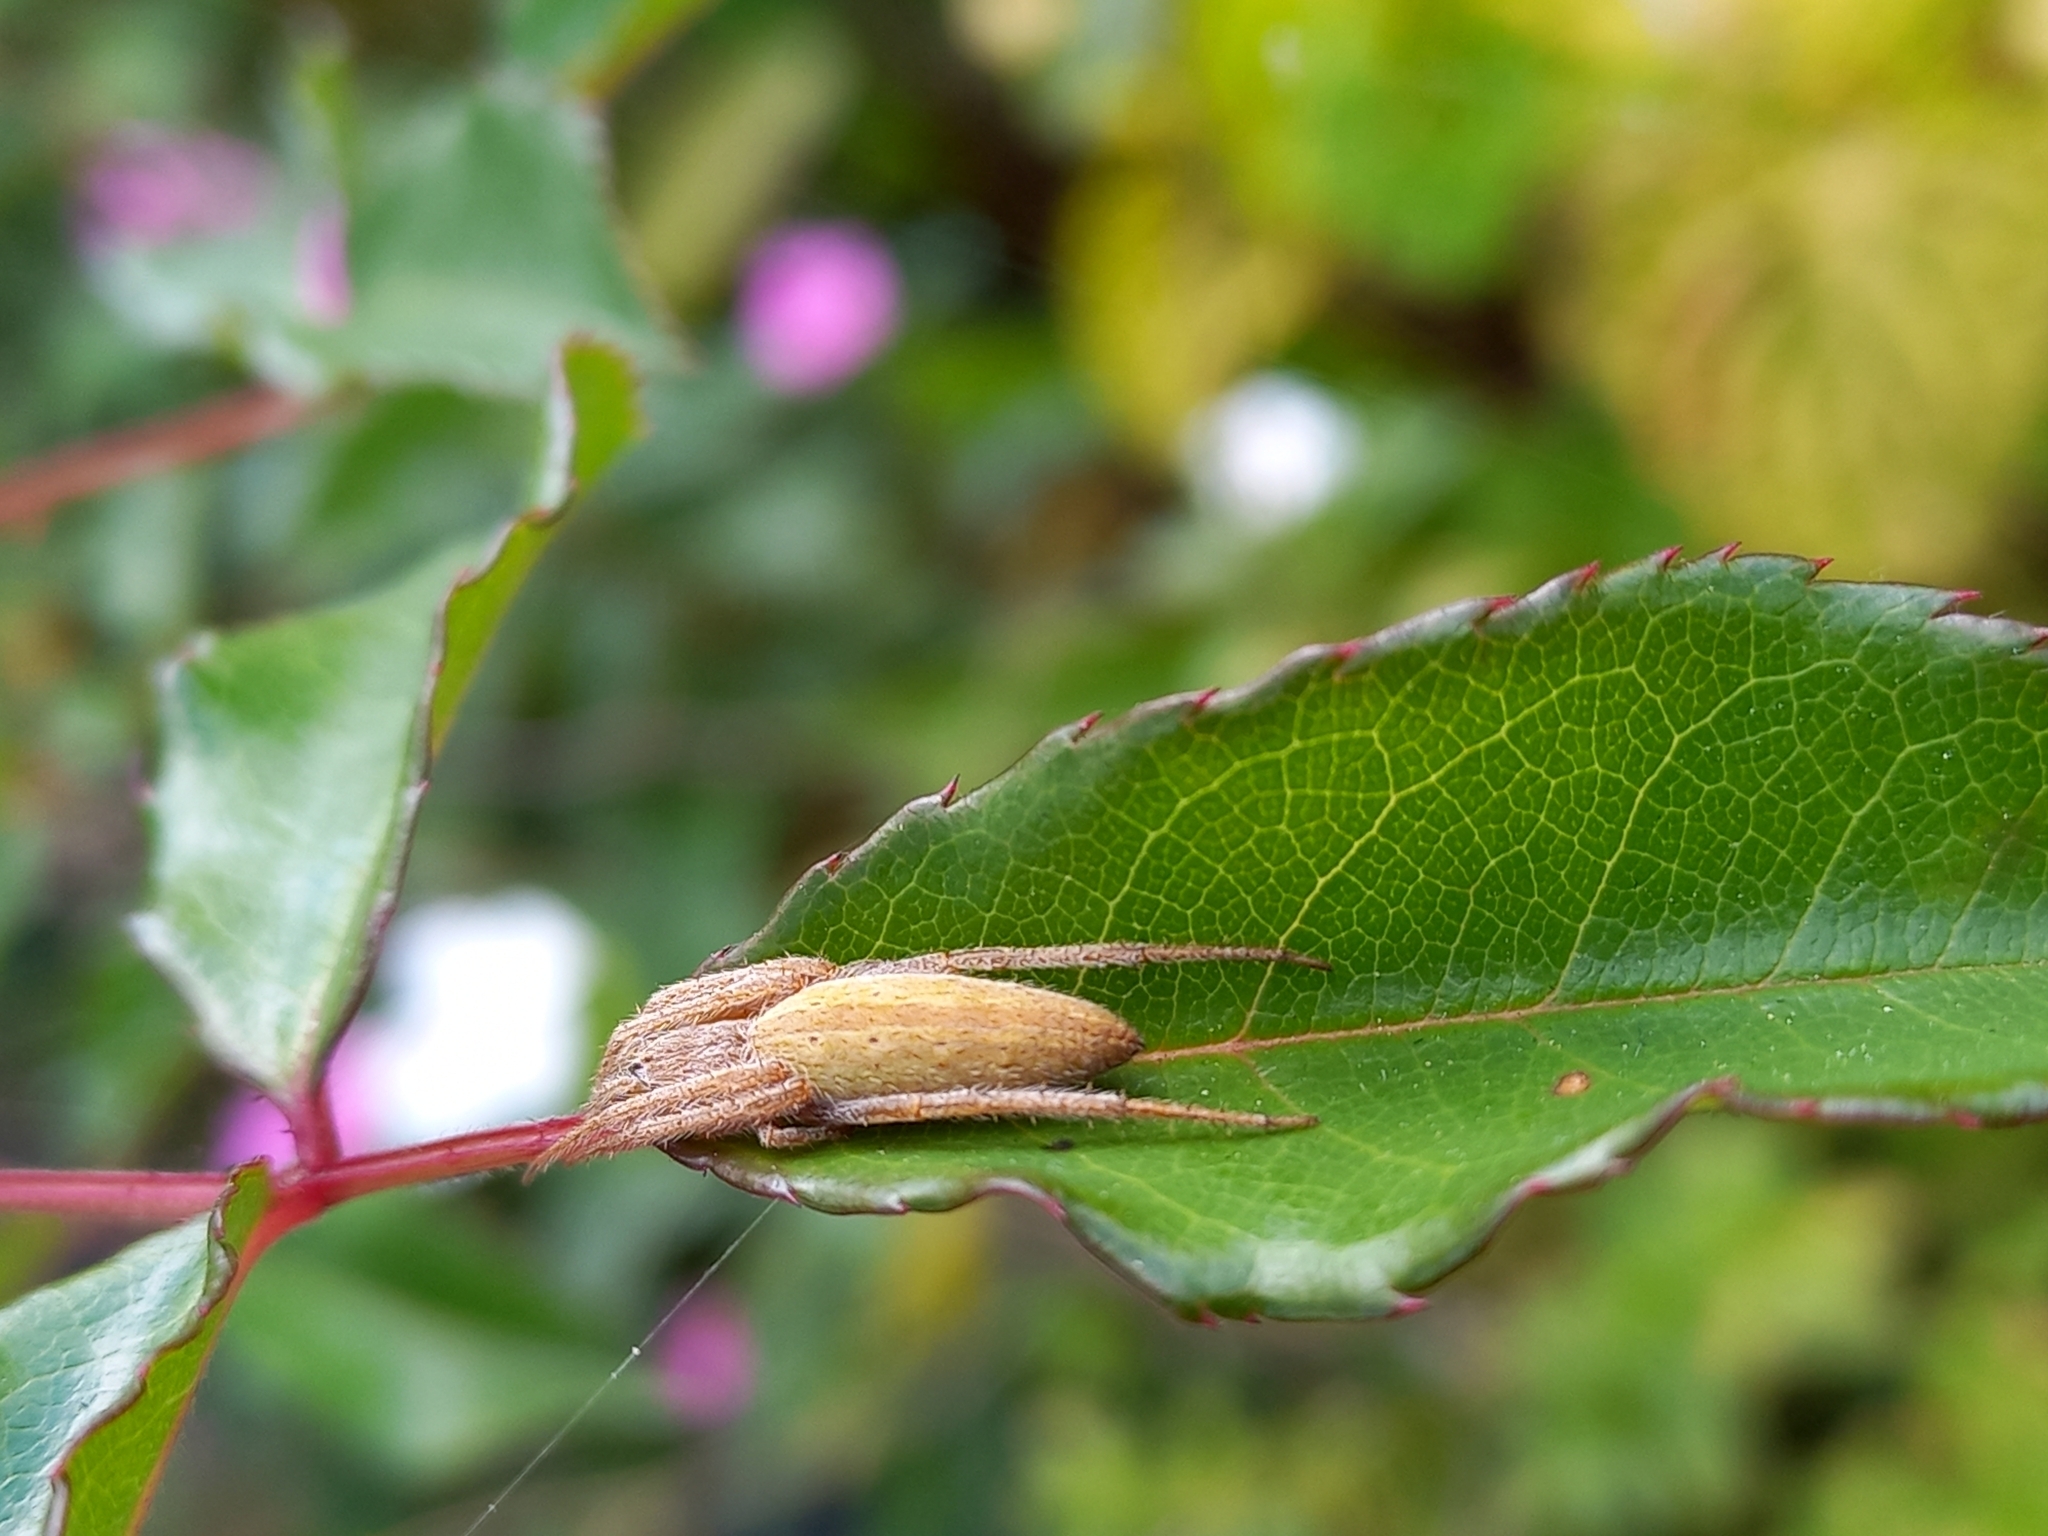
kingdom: Animalia
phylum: Arthropoda
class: Arachnida
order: Araneae
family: Araneidae
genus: Eustala
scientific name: Eustala fuscovittata
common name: Orb weavers
